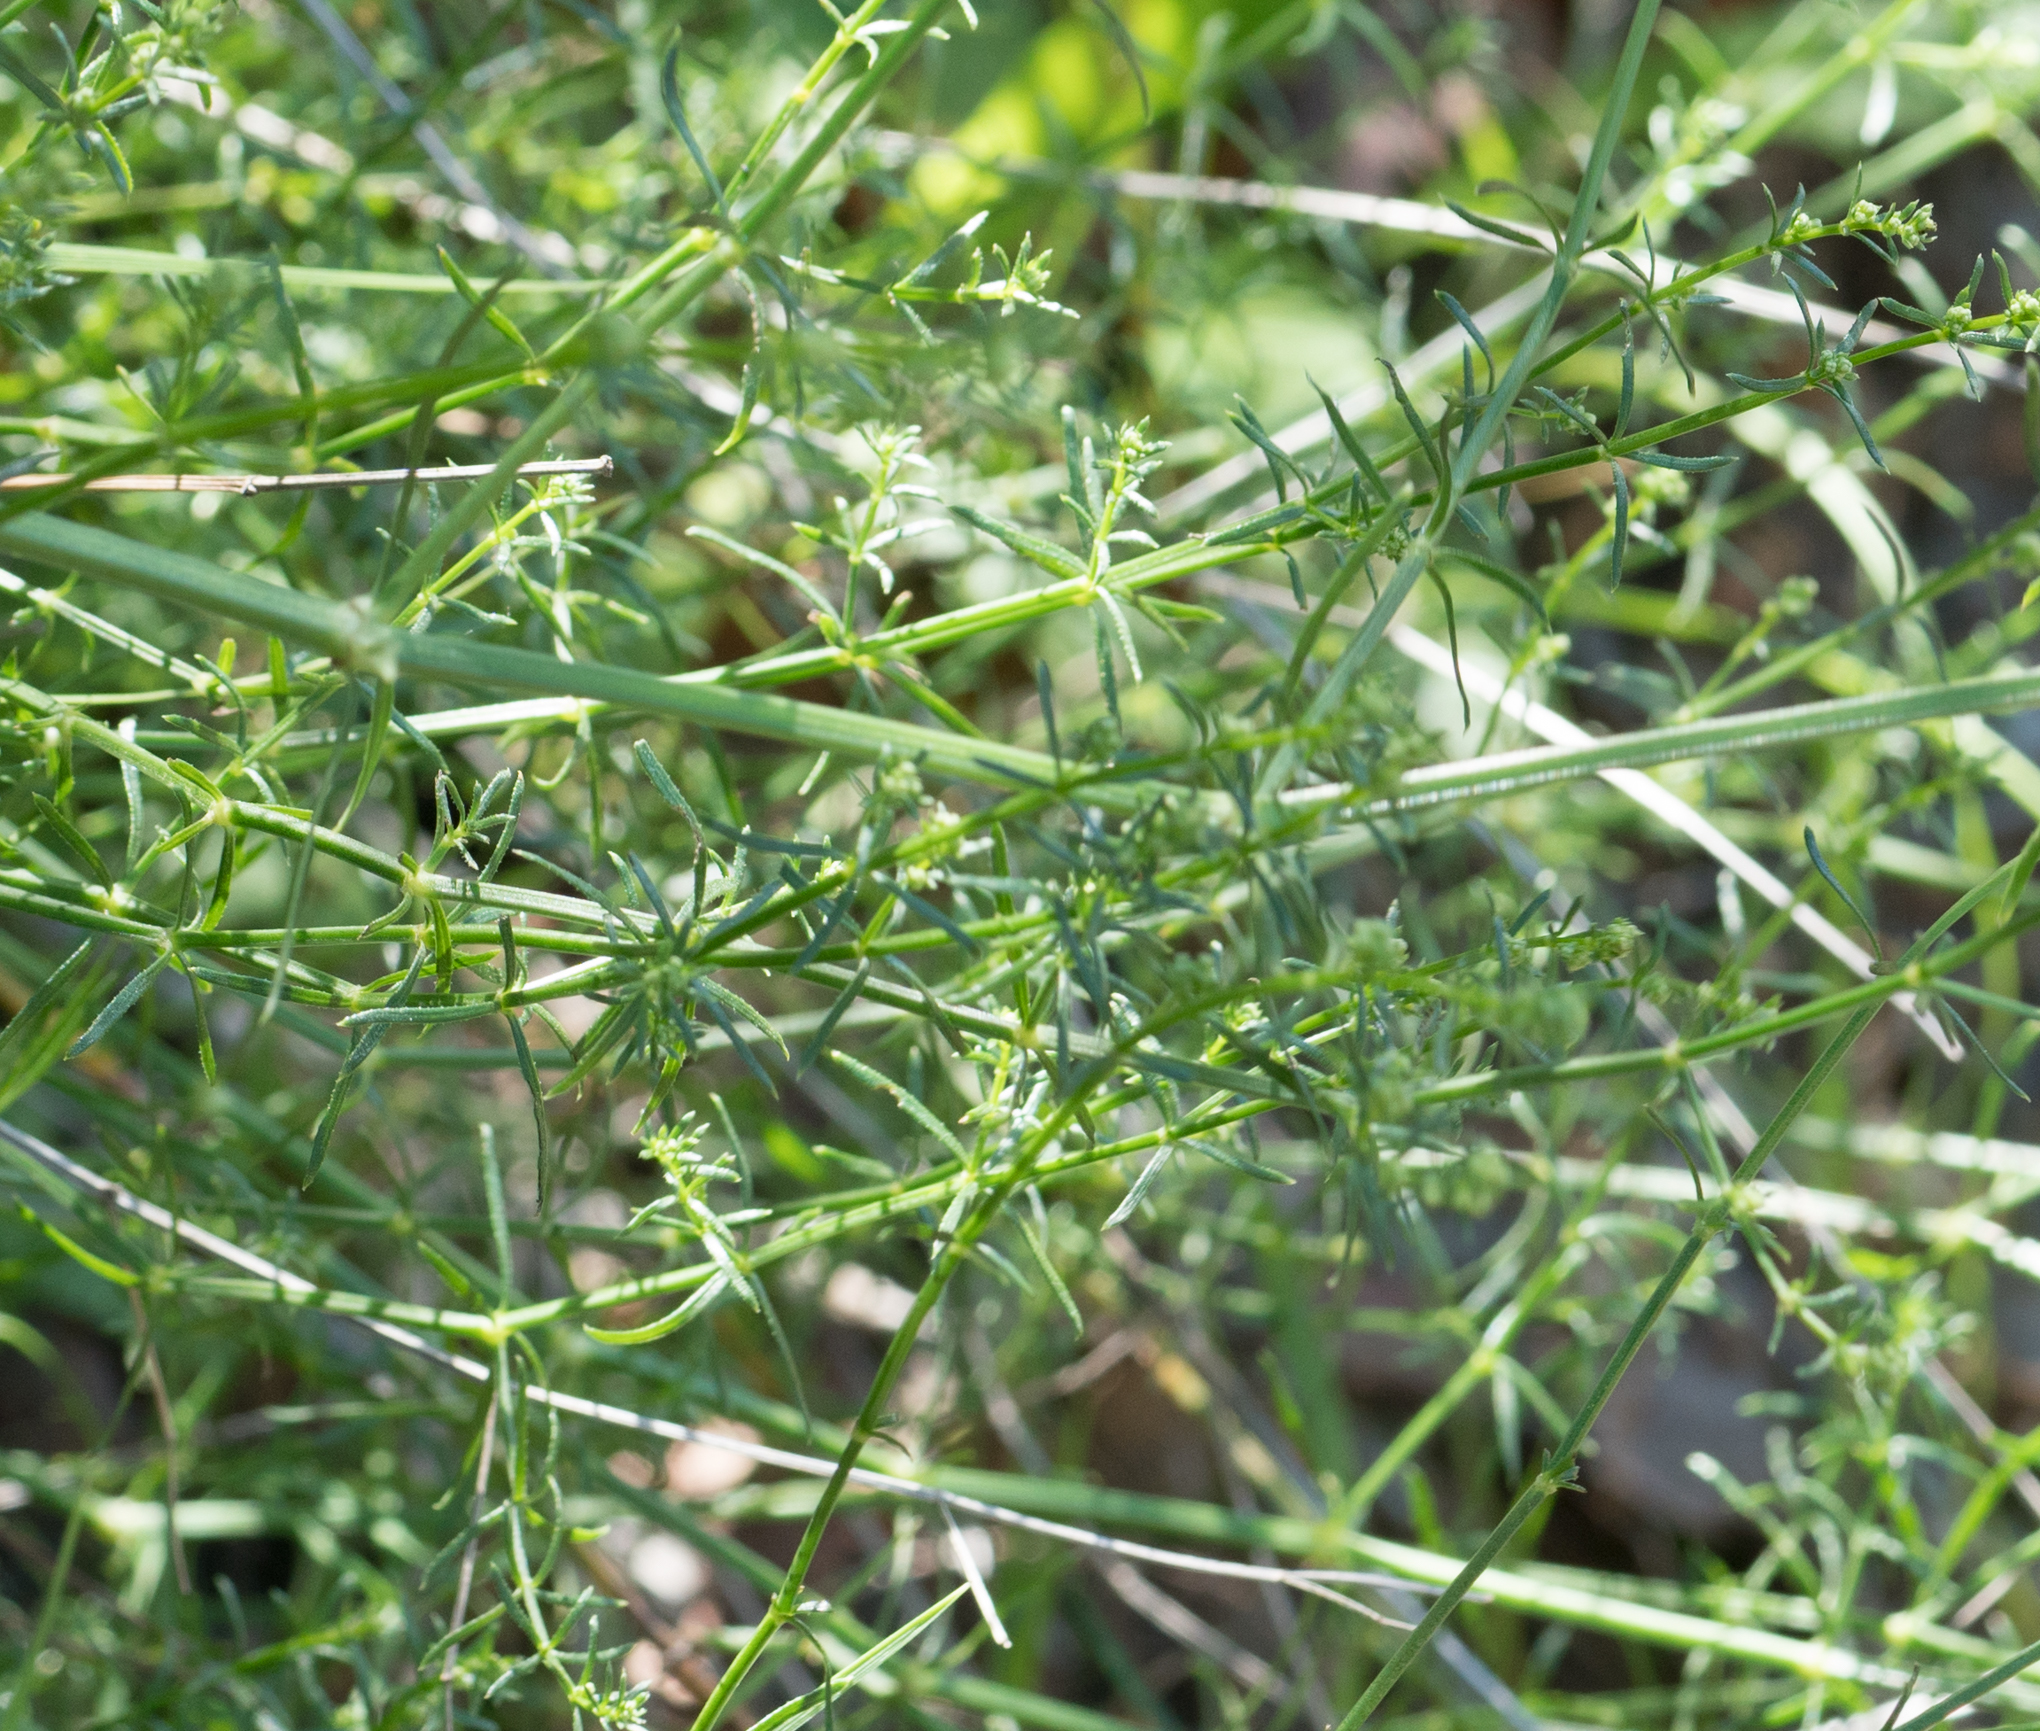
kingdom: Plantae
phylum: Tracheophyta
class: Magnoliopsida
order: Gentianales
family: Rubiaceae
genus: Galium
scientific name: Galium angustifolium
